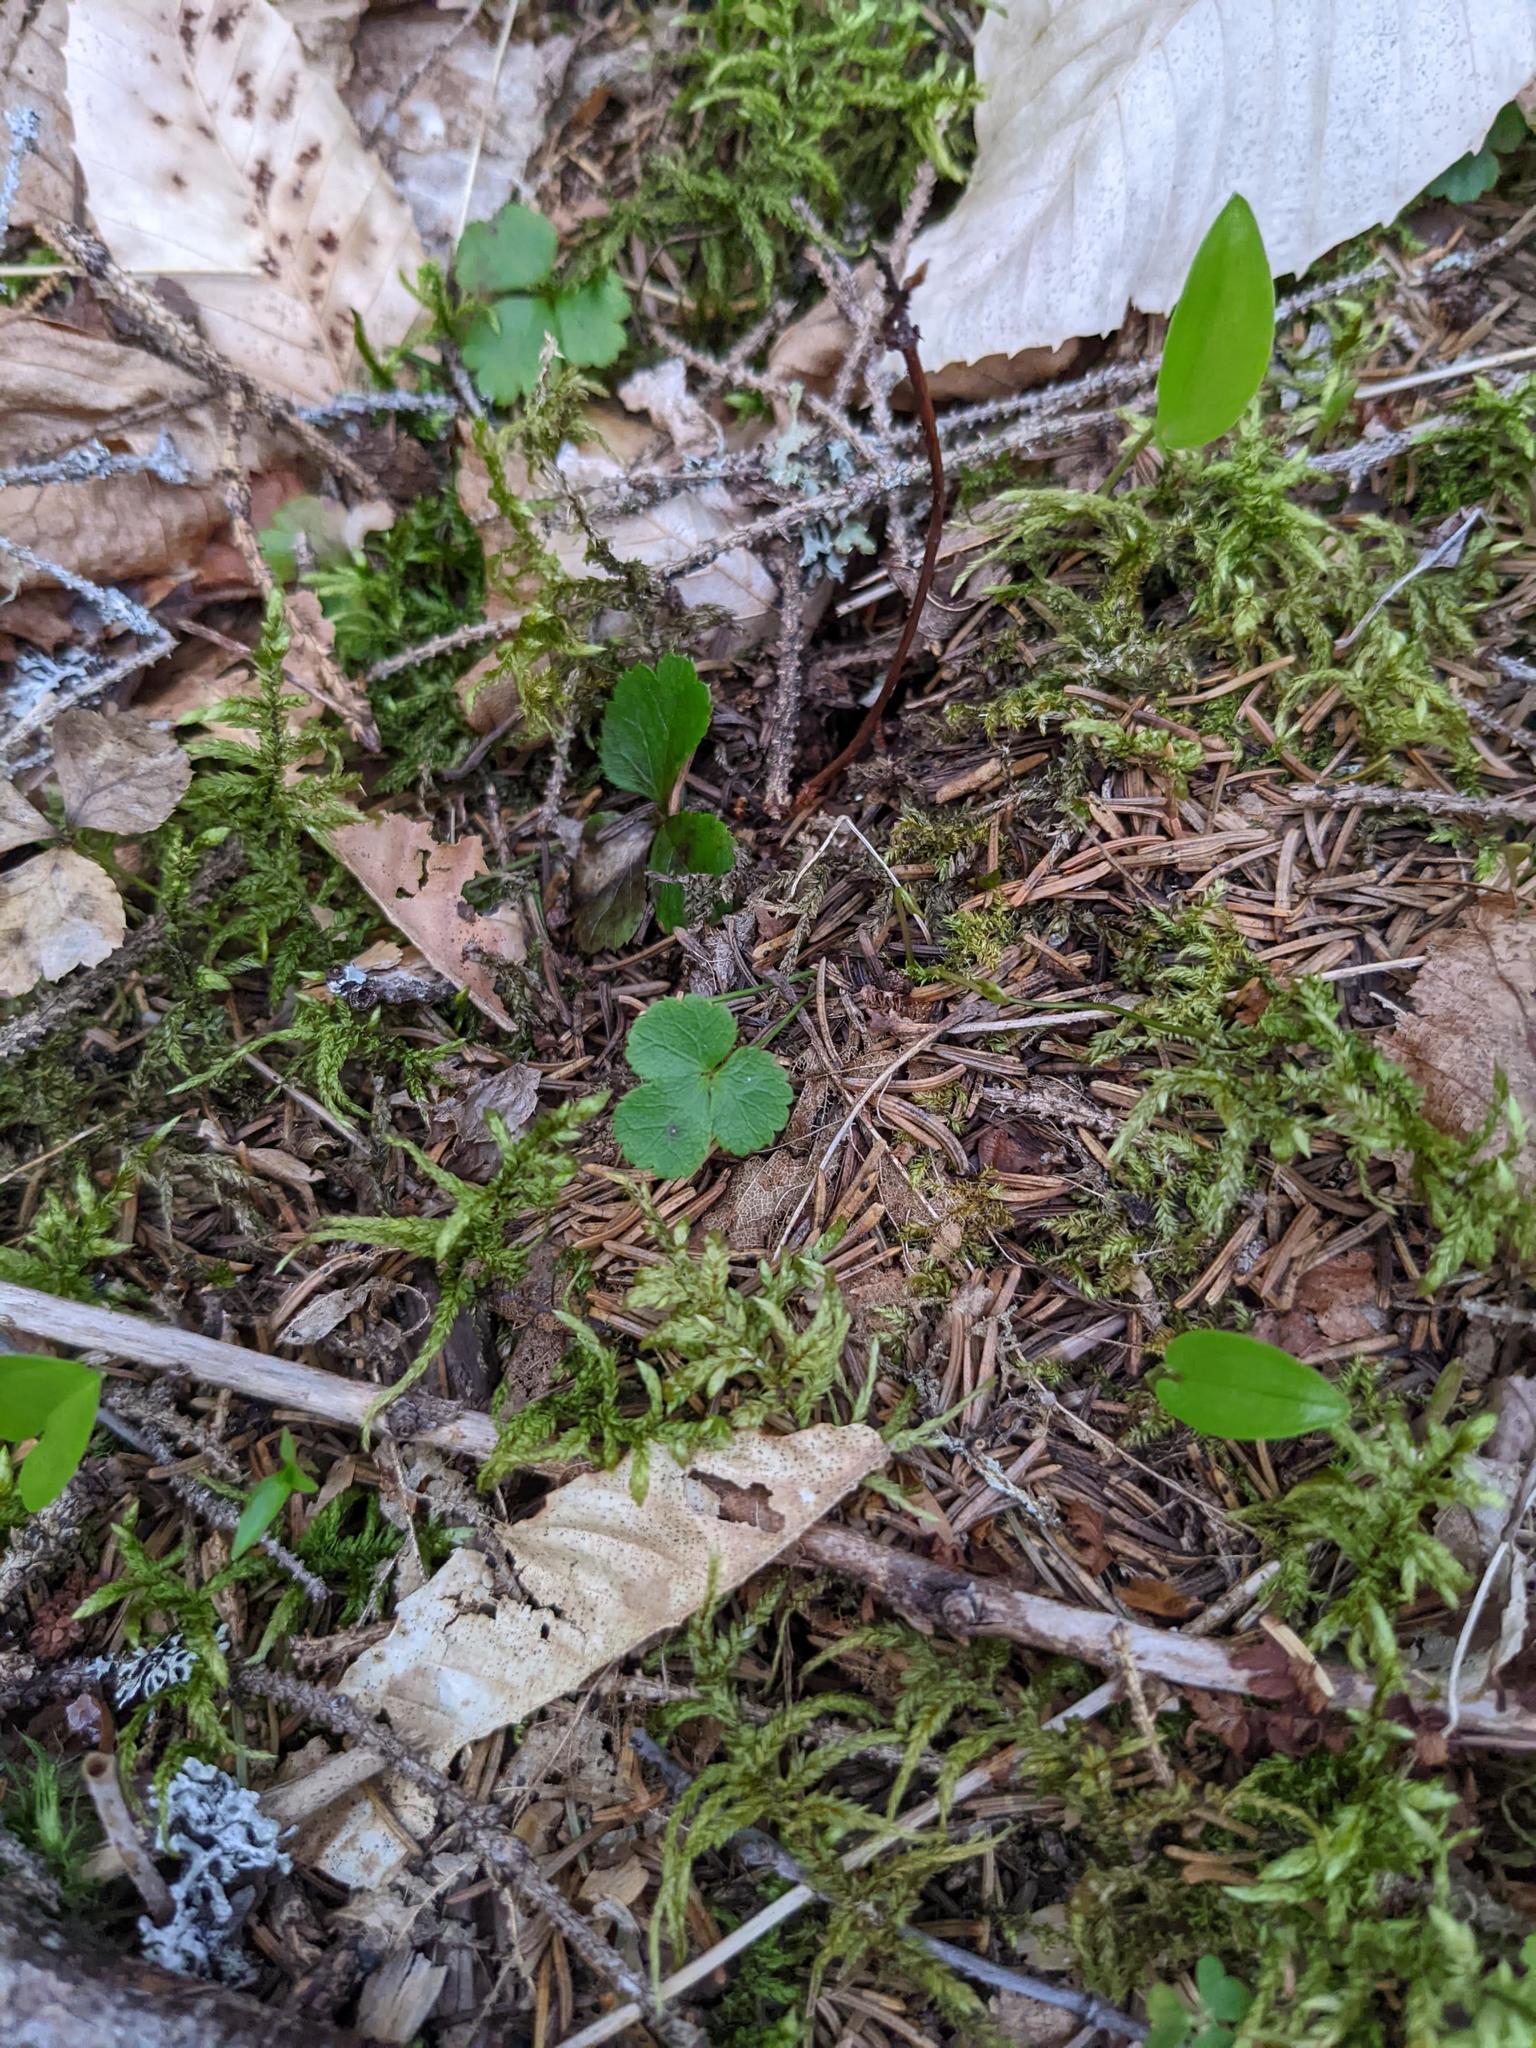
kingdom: Plantae
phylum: Tracheophyta
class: Magnoliopsida
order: Ranunculales
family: Ranunculaceae
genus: Coptis
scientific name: Coptis trifolia
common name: Canker-root
